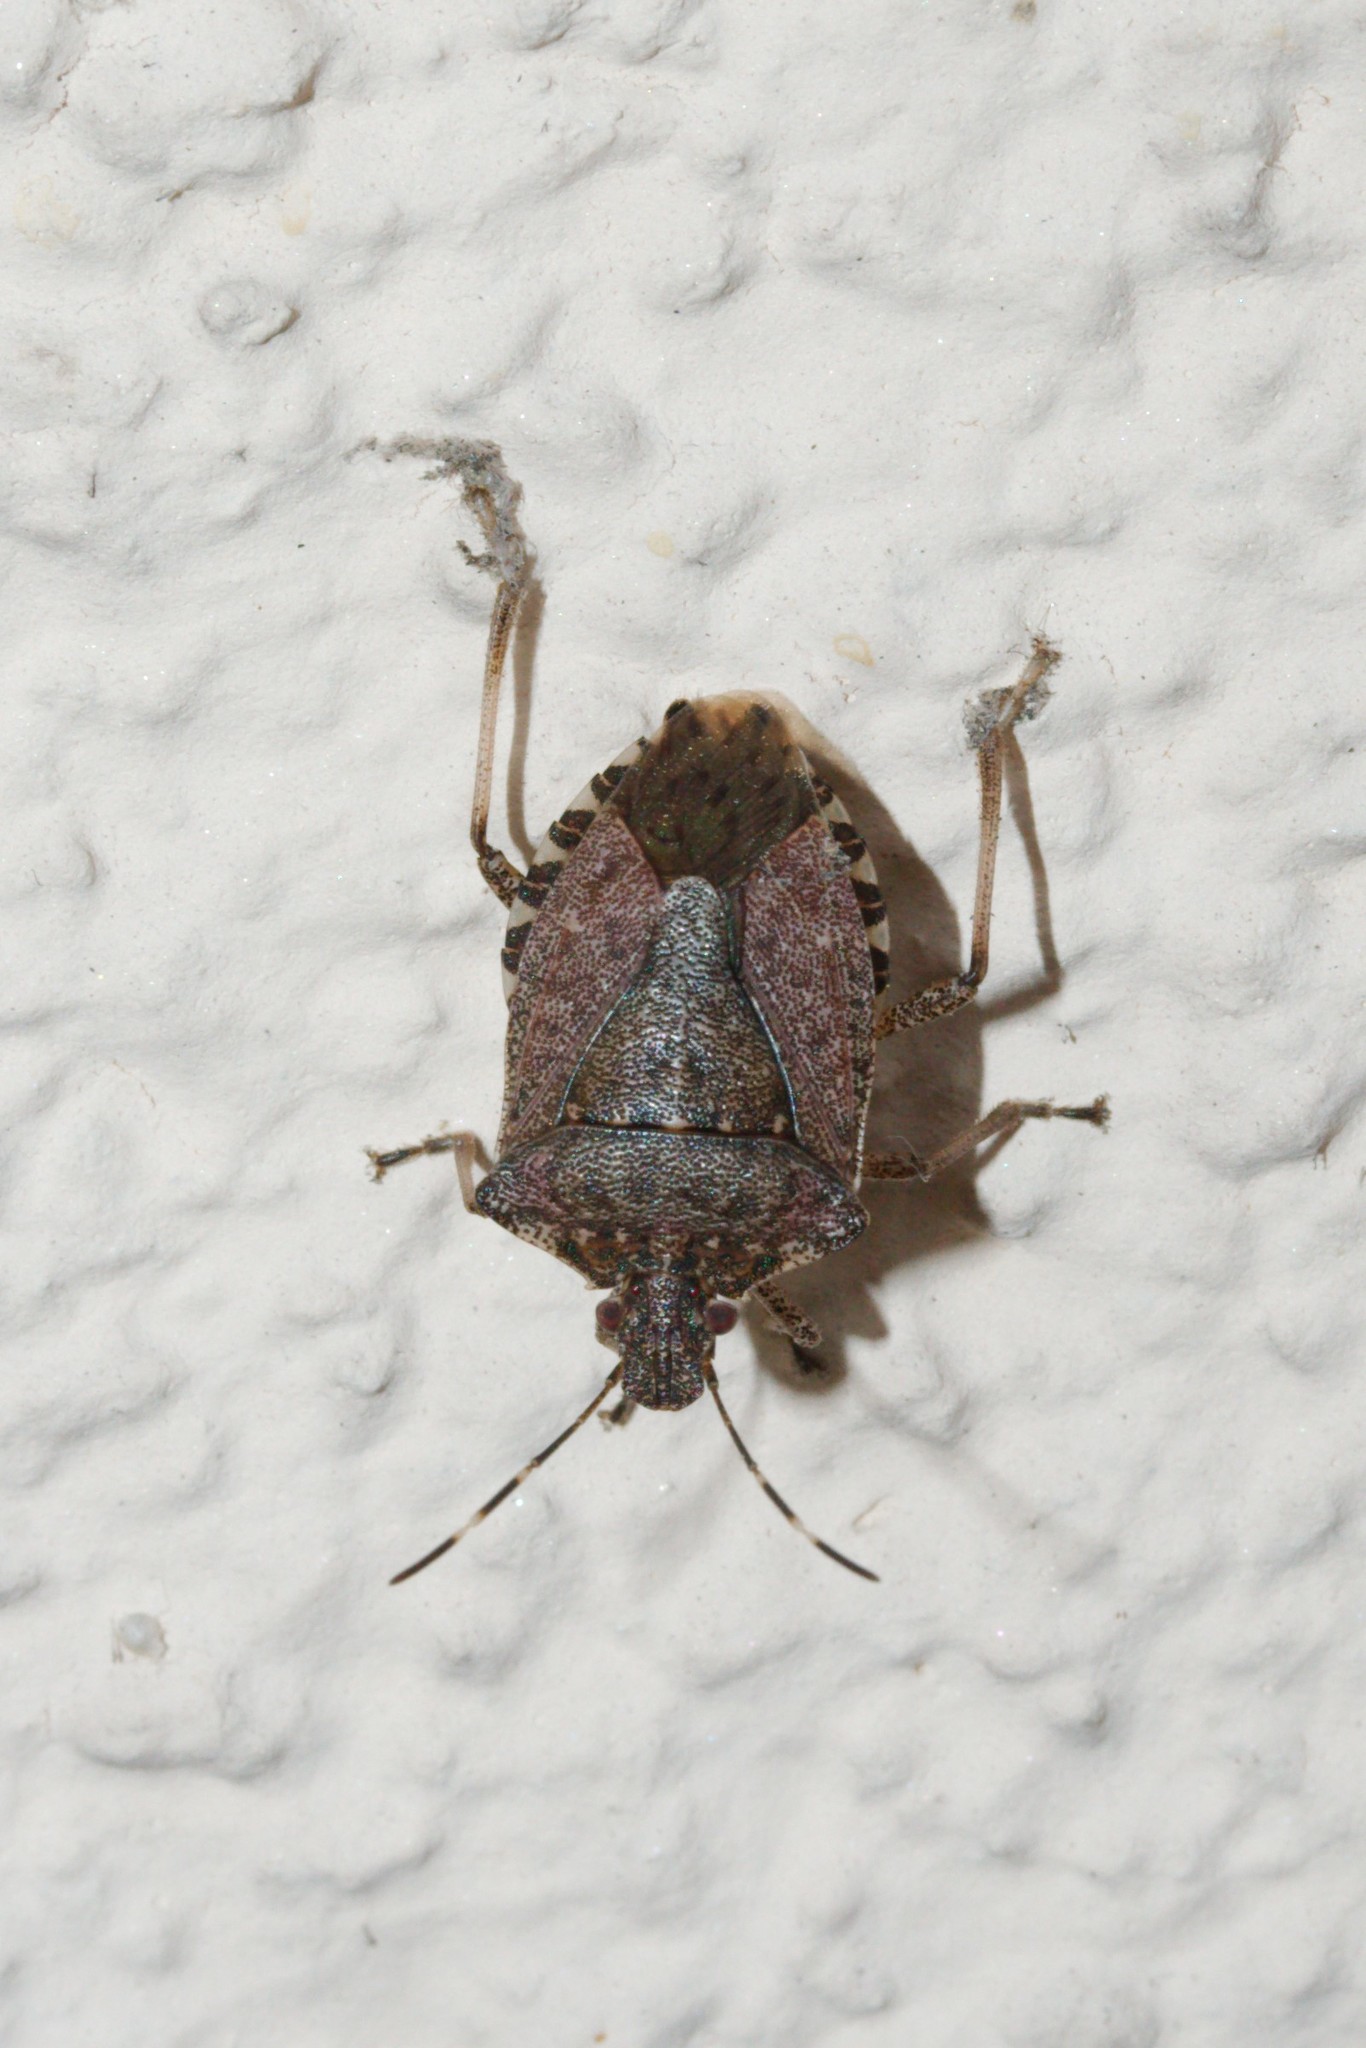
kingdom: Animalia
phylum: Arthropoda
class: Insecta
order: Hemiptera
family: Pentatomidae
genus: Halyomorpha
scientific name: Halyomorpha halys
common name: Brown marmorated stink bug
